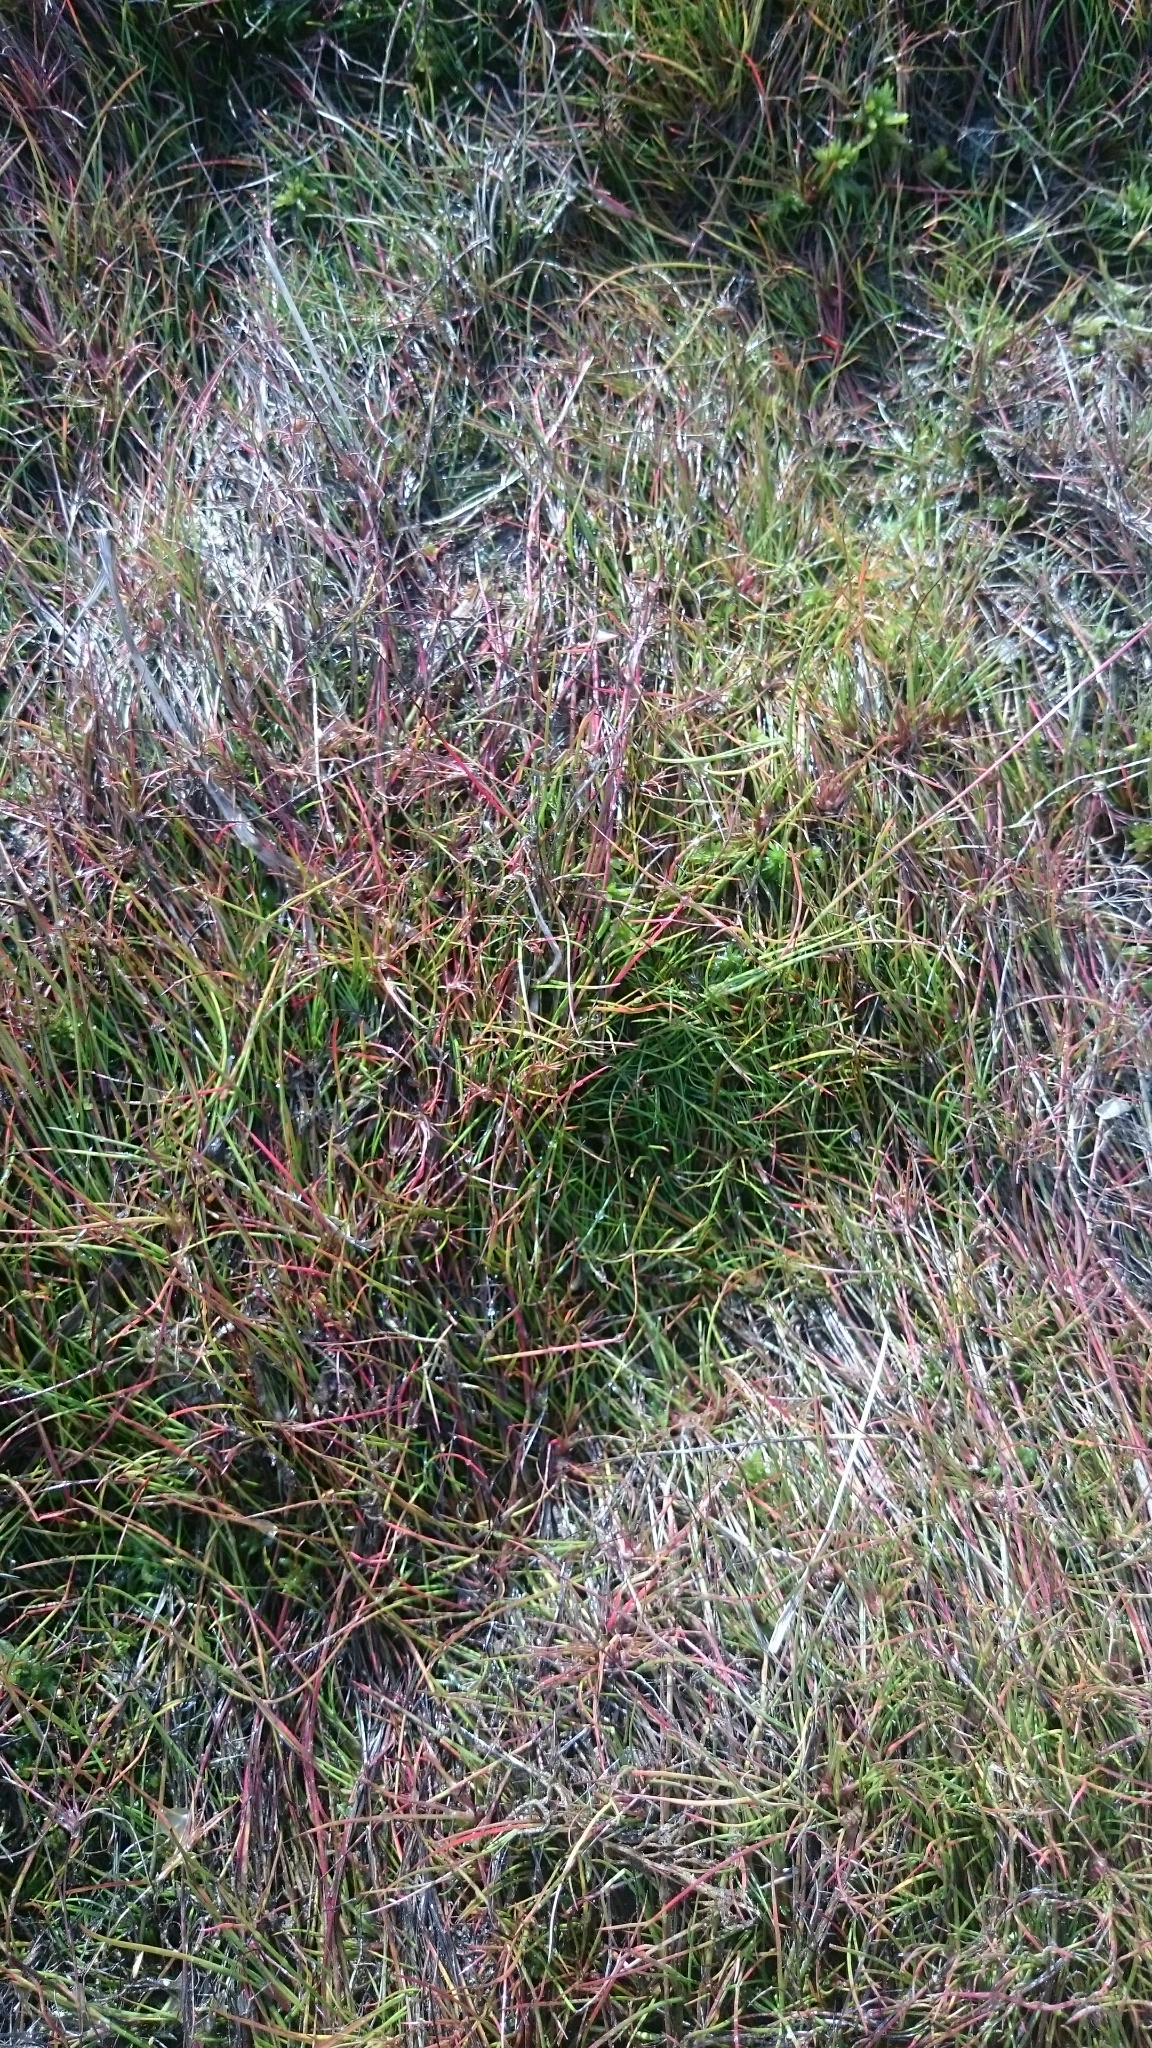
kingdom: Plantae
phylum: Tracheophyta
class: Liliopsida
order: Poales
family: Juncaceae
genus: Juncus
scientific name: Juncus bulbosus
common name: Bulbous rush
